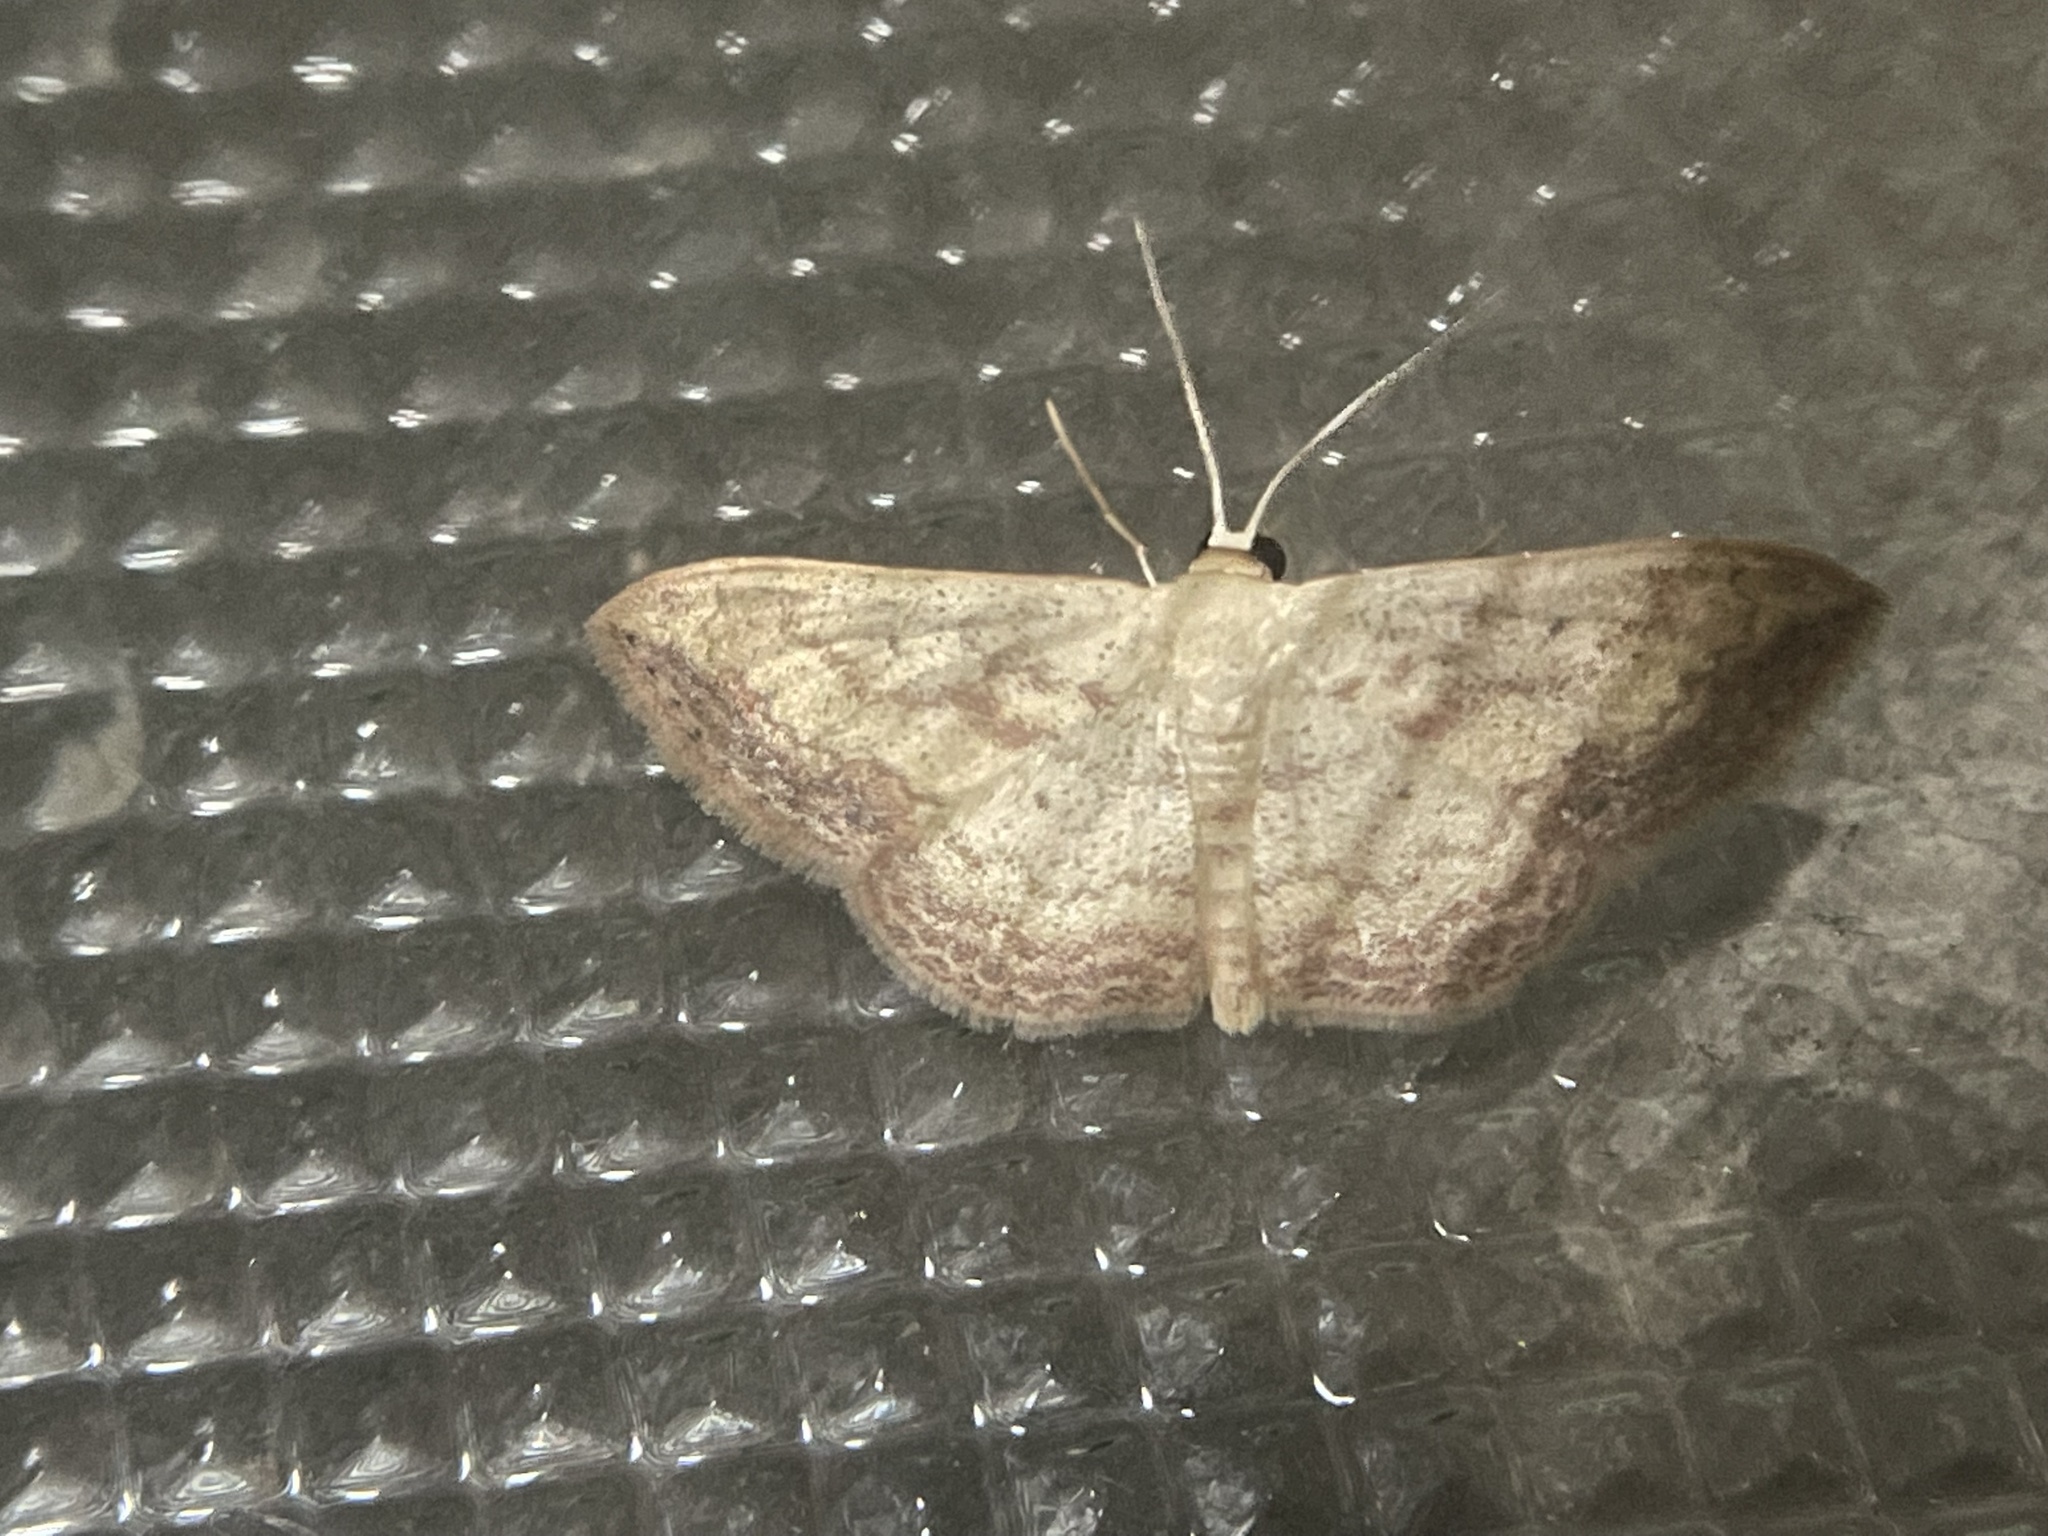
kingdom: Animalia
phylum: Arthropoda
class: Insecta
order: Lepidoptera
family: Geometridae
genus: Scopula
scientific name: Scopula caesaria
